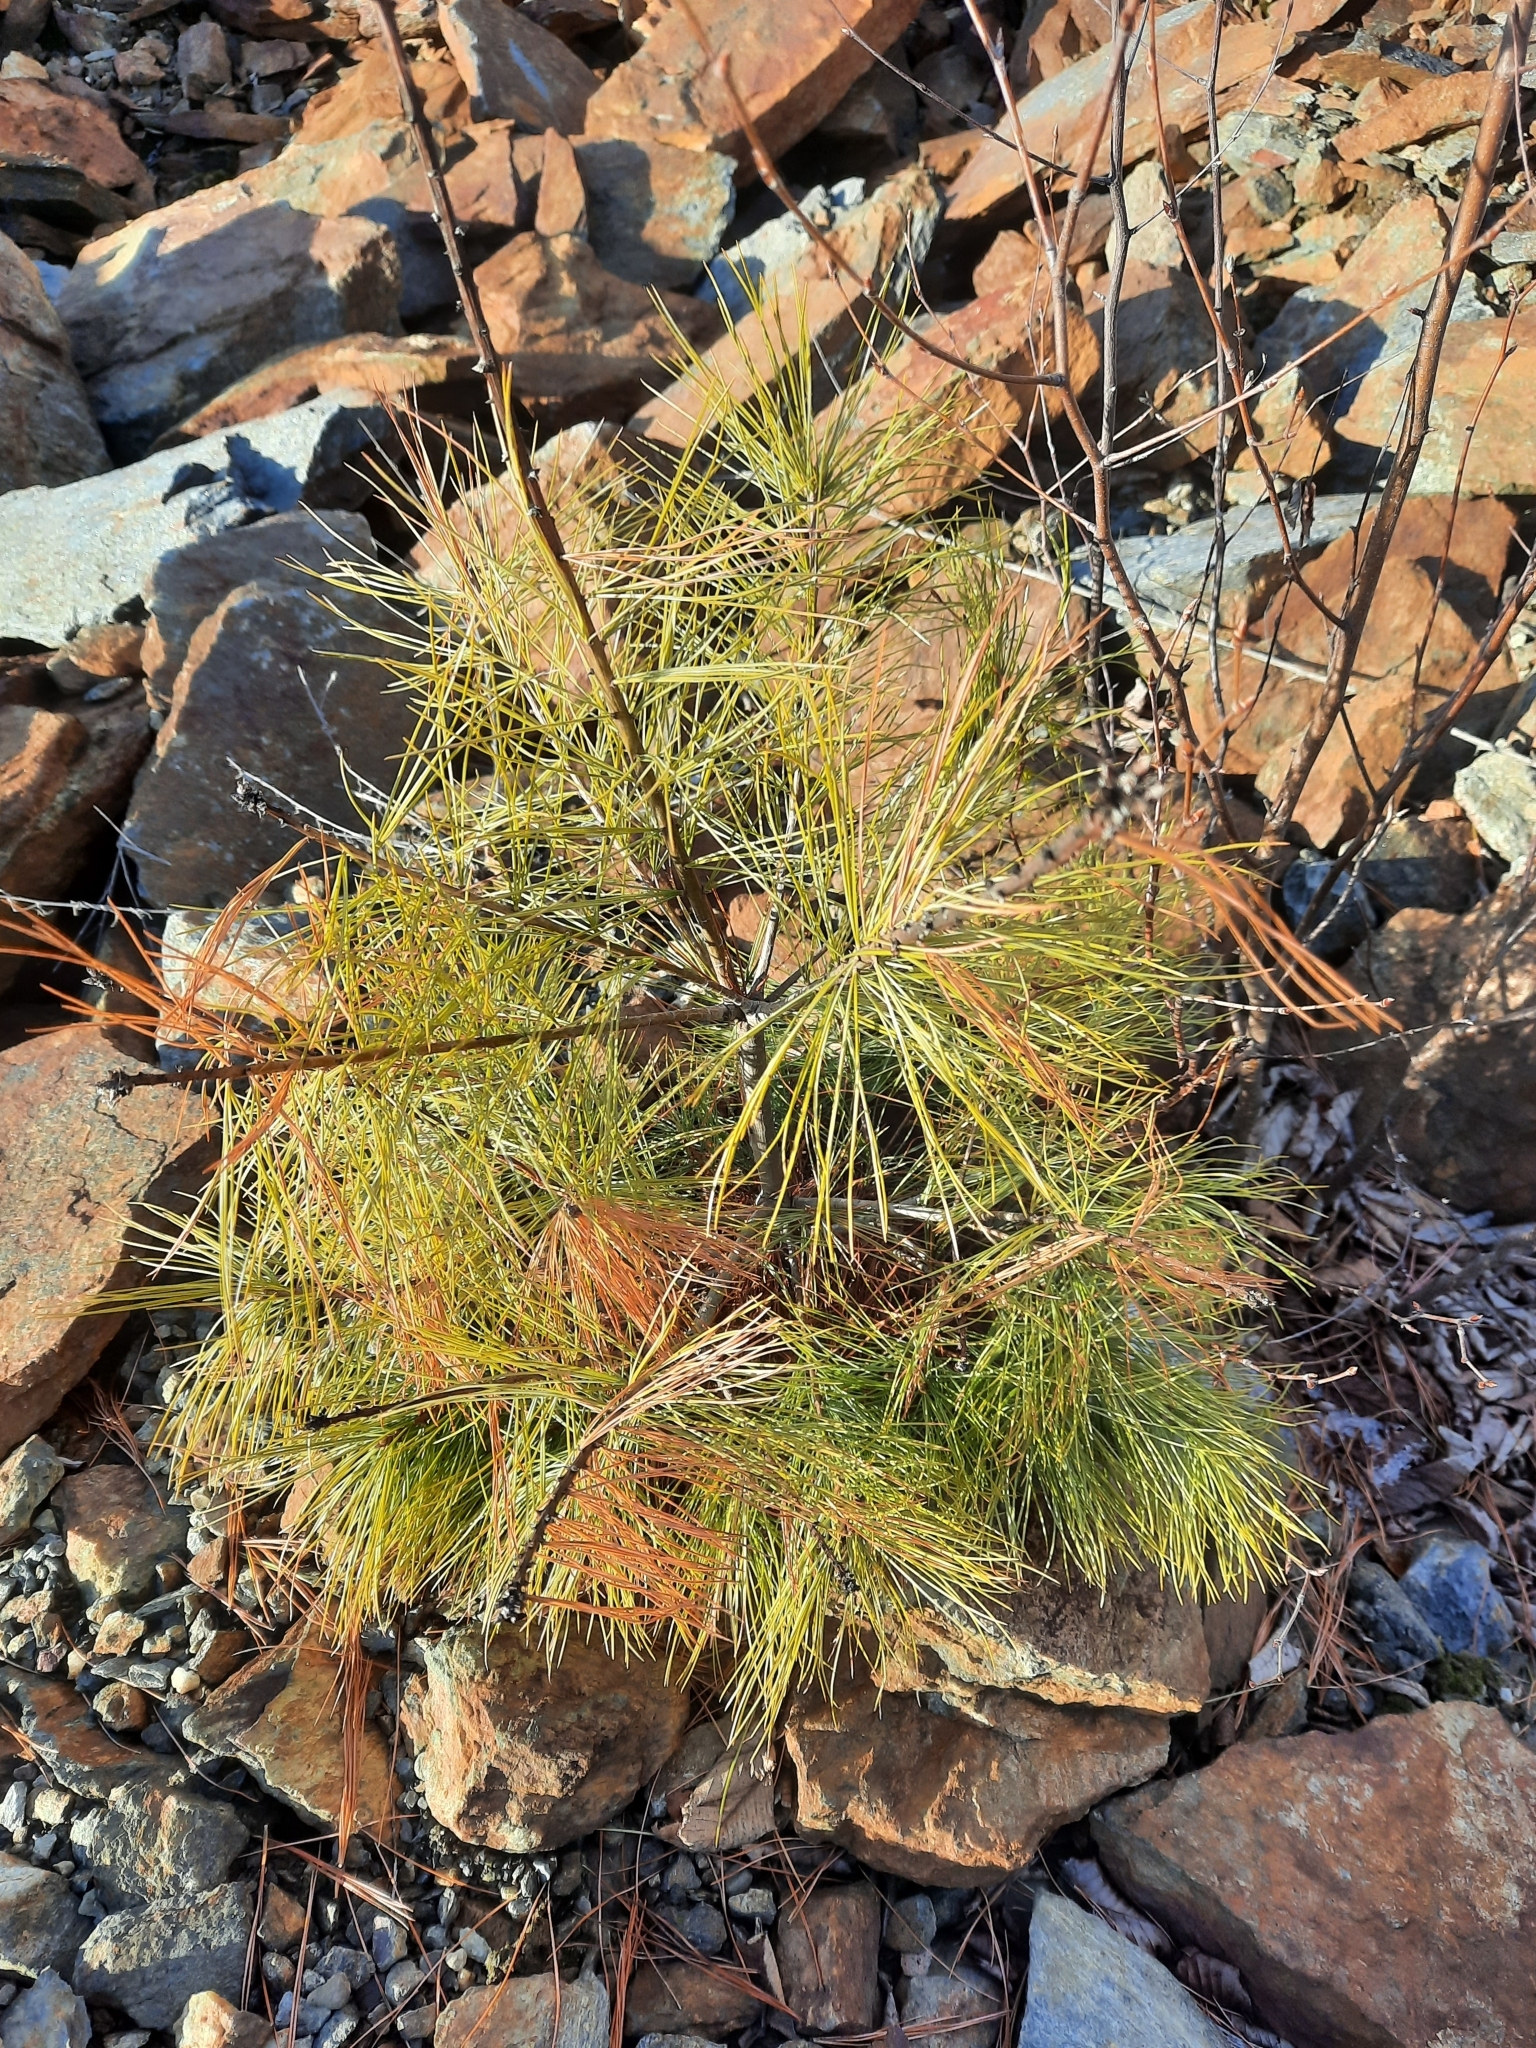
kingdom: Plantae
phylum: Tracheophyta
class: Pinopsida
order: Pinales
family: Pinaceae
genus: Pinus
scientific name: Pinus strobus
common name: Weymouth pine
